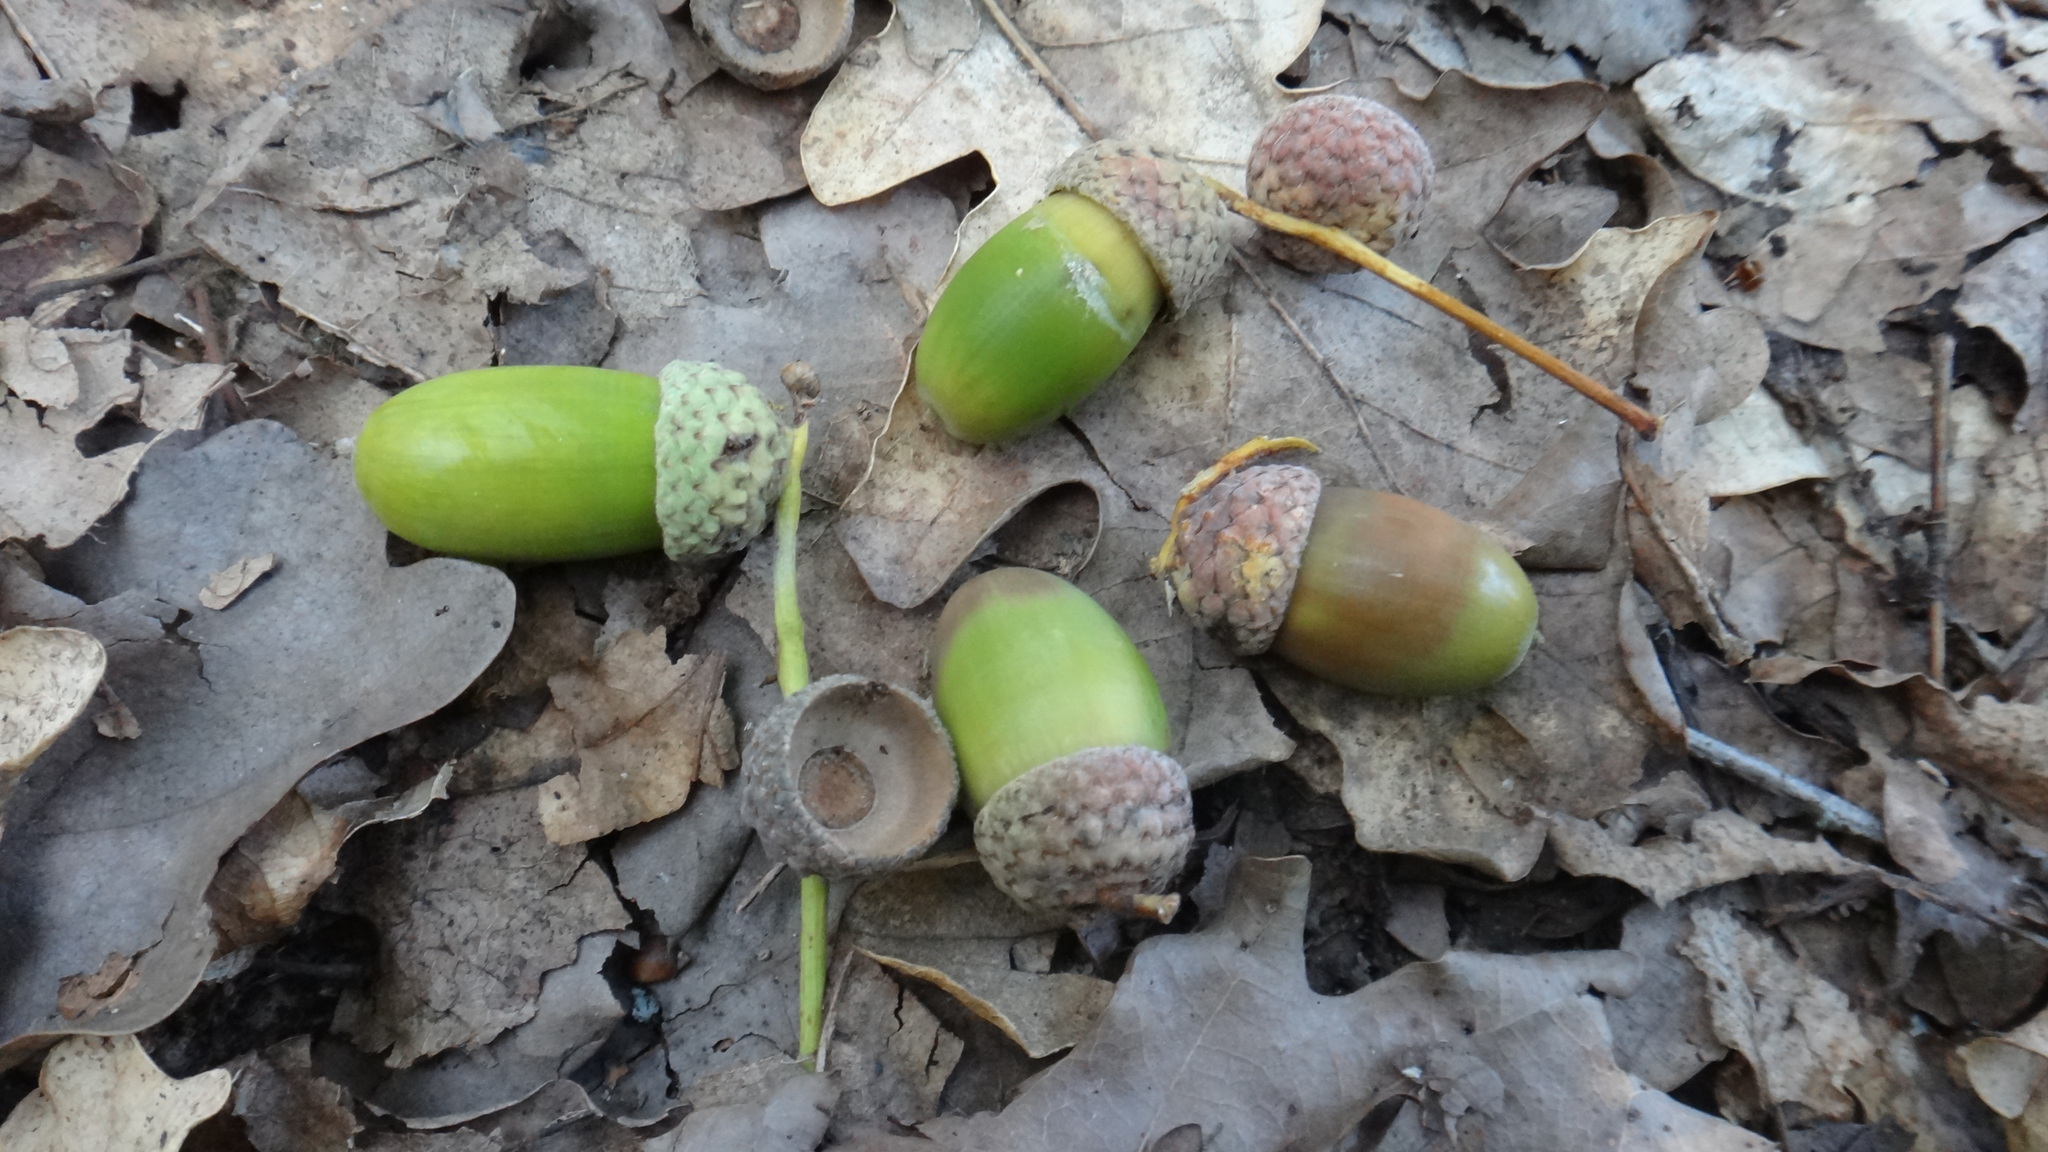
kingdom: Plantae
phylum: Tracheophyta
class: Magnoliopsida
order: Fagales
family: Fagaceae
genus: Quercus
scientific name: Quercus robur
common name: Pedunculate oak
